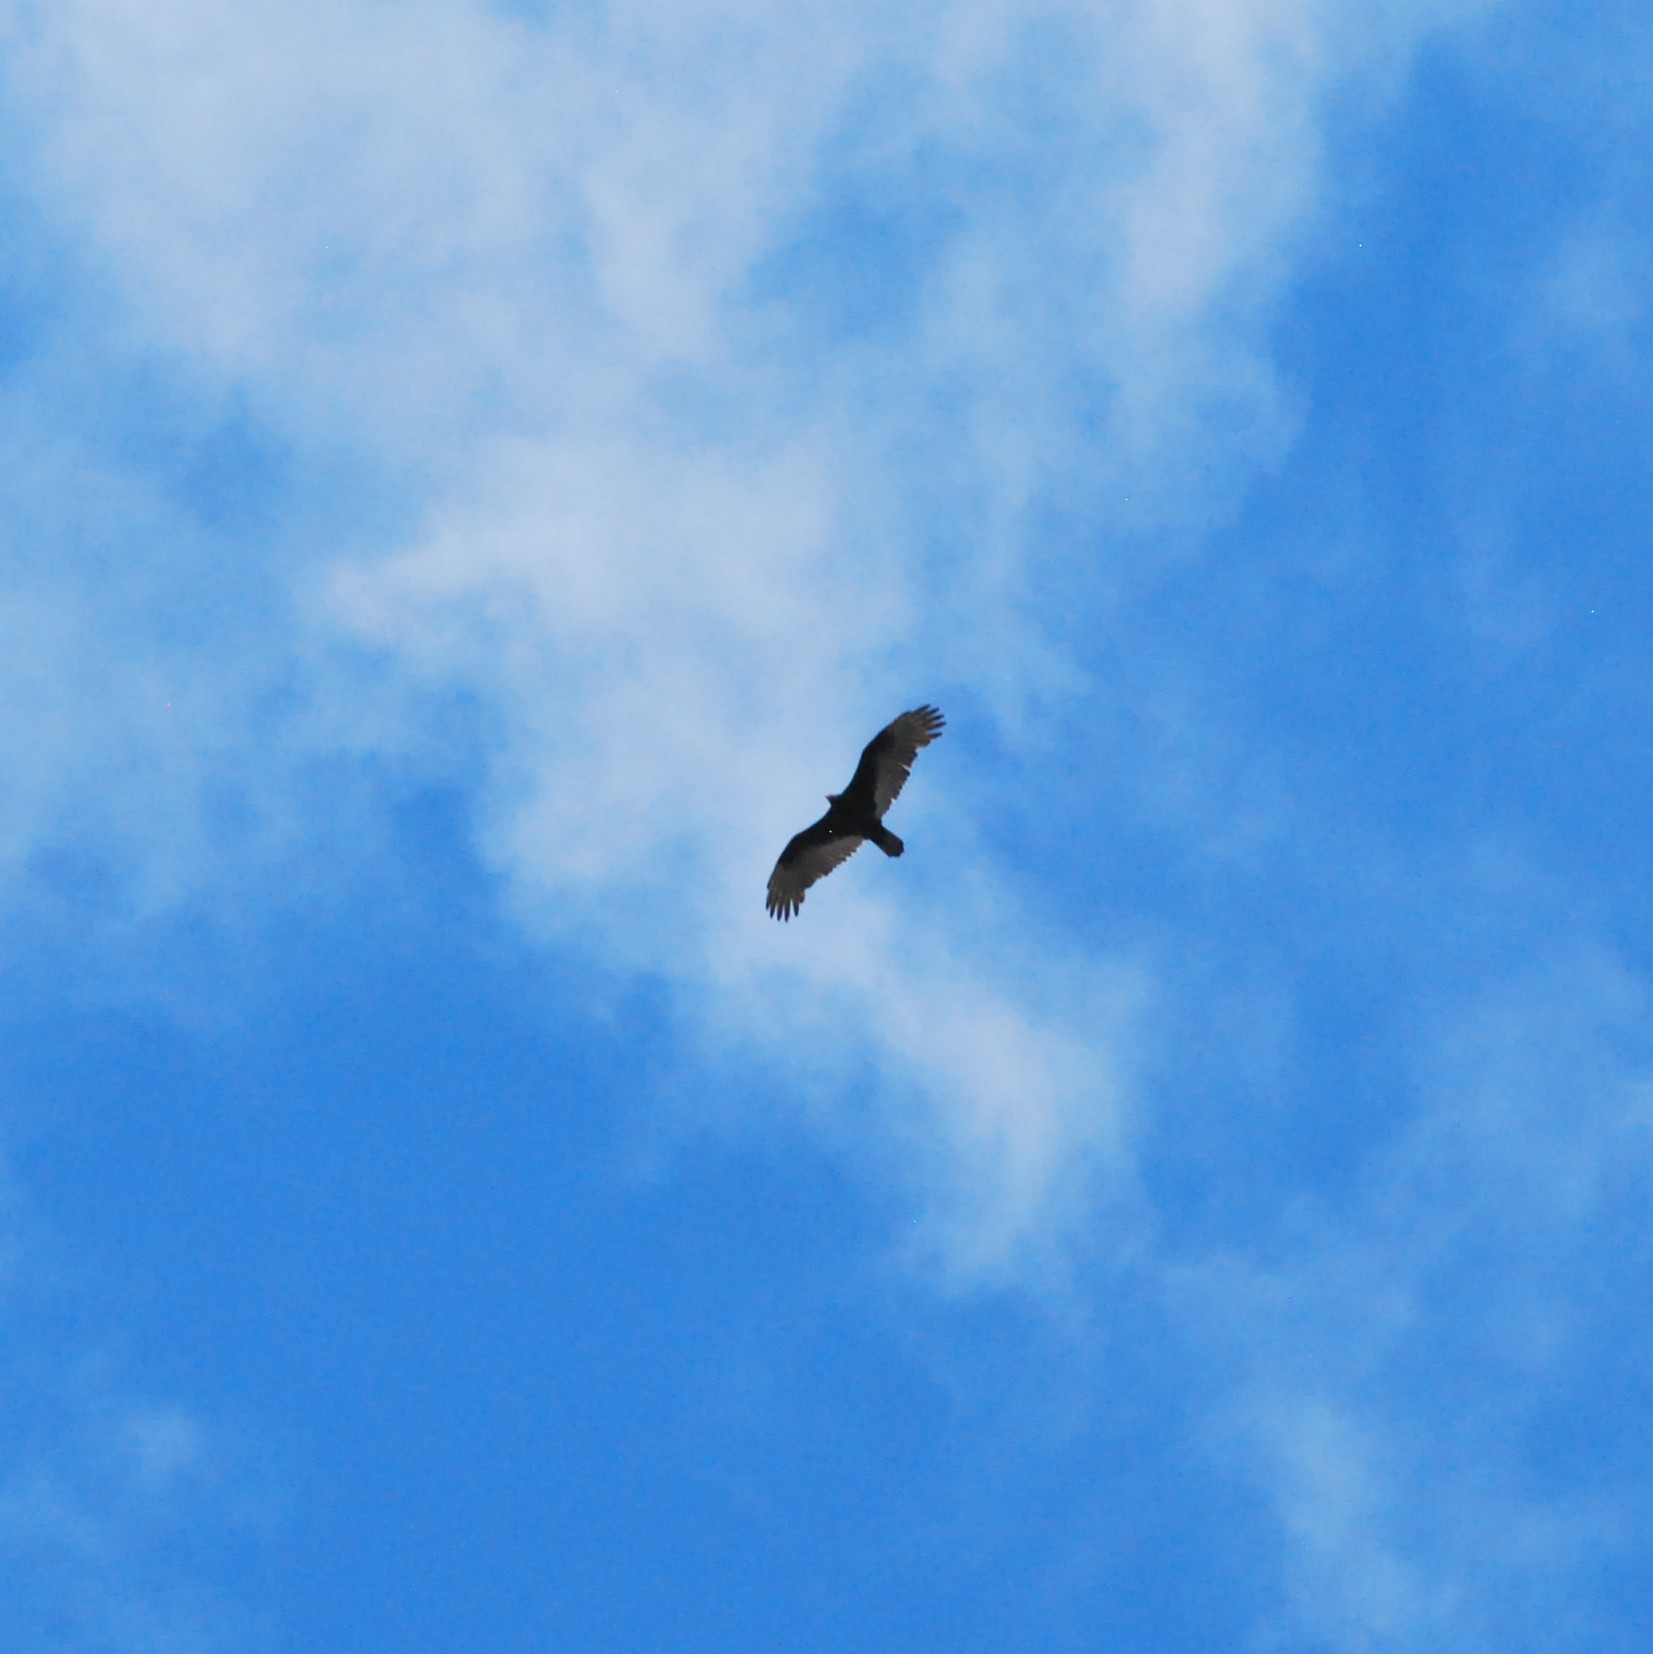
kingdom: Animalia
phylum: Chordata
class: Aves
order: Accipitriformes
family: Cathartidae
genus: Cathartes
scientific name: Cathartes aura
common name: Turkey vulture
